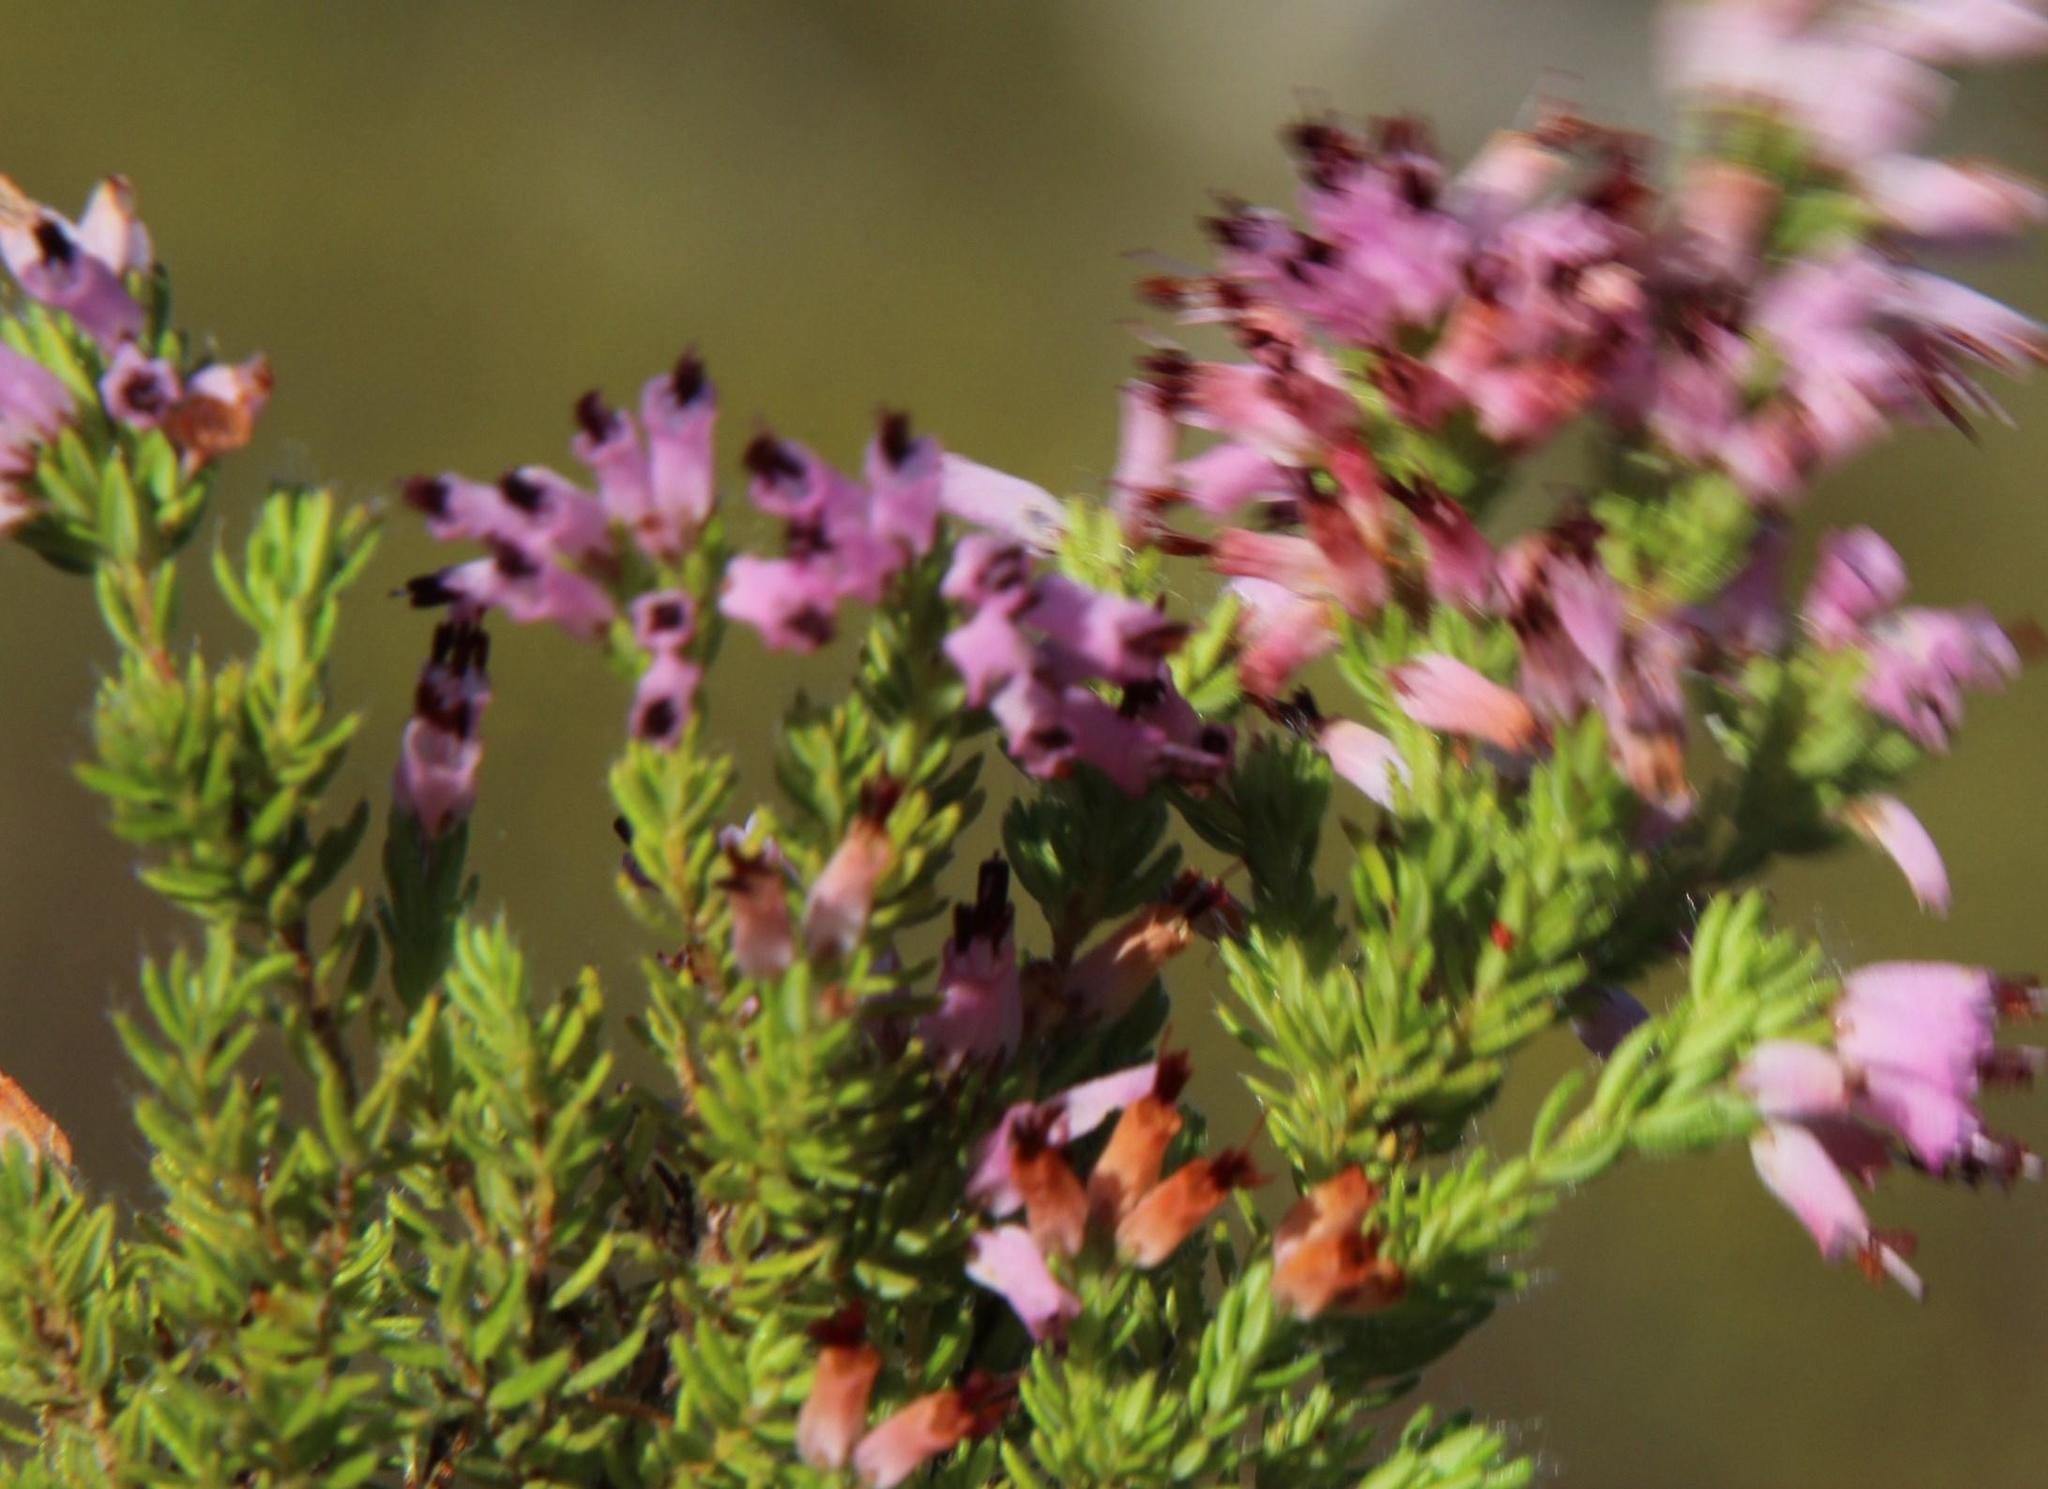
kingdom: Plantae
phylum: Tracheophyta
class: Magnoliopsida
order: Ericales
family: Ericaceae
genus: Erica
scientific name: Erica uberiflora
